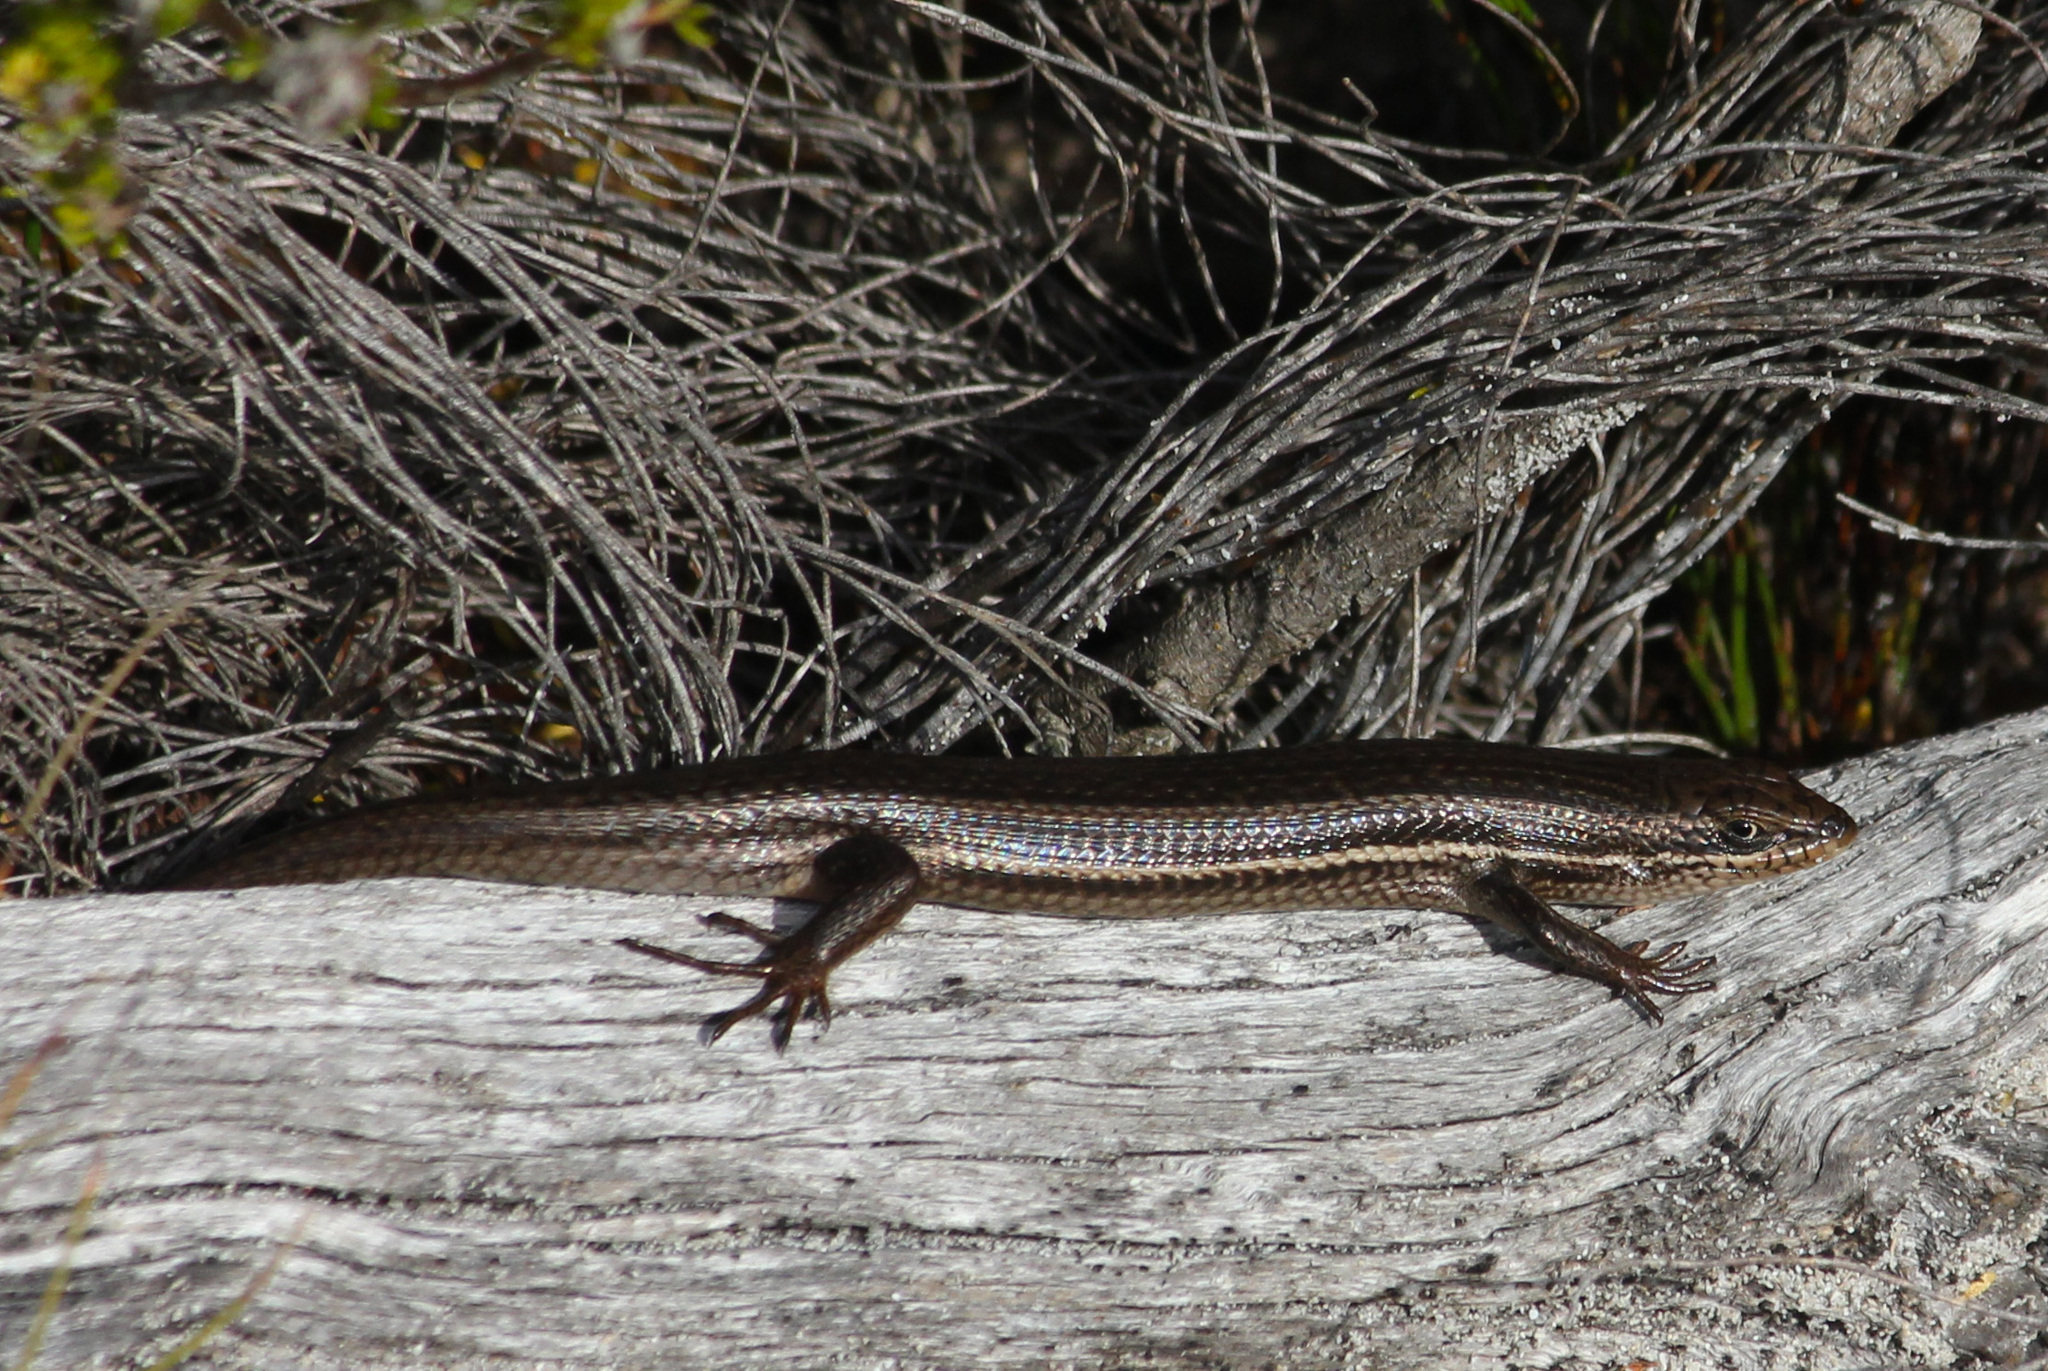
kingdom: Animalia
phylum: Chordata
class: Squamata
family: Scincidae
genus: Trachylepis
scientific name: Trachylepis homalocephala
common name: Red-sided skink
